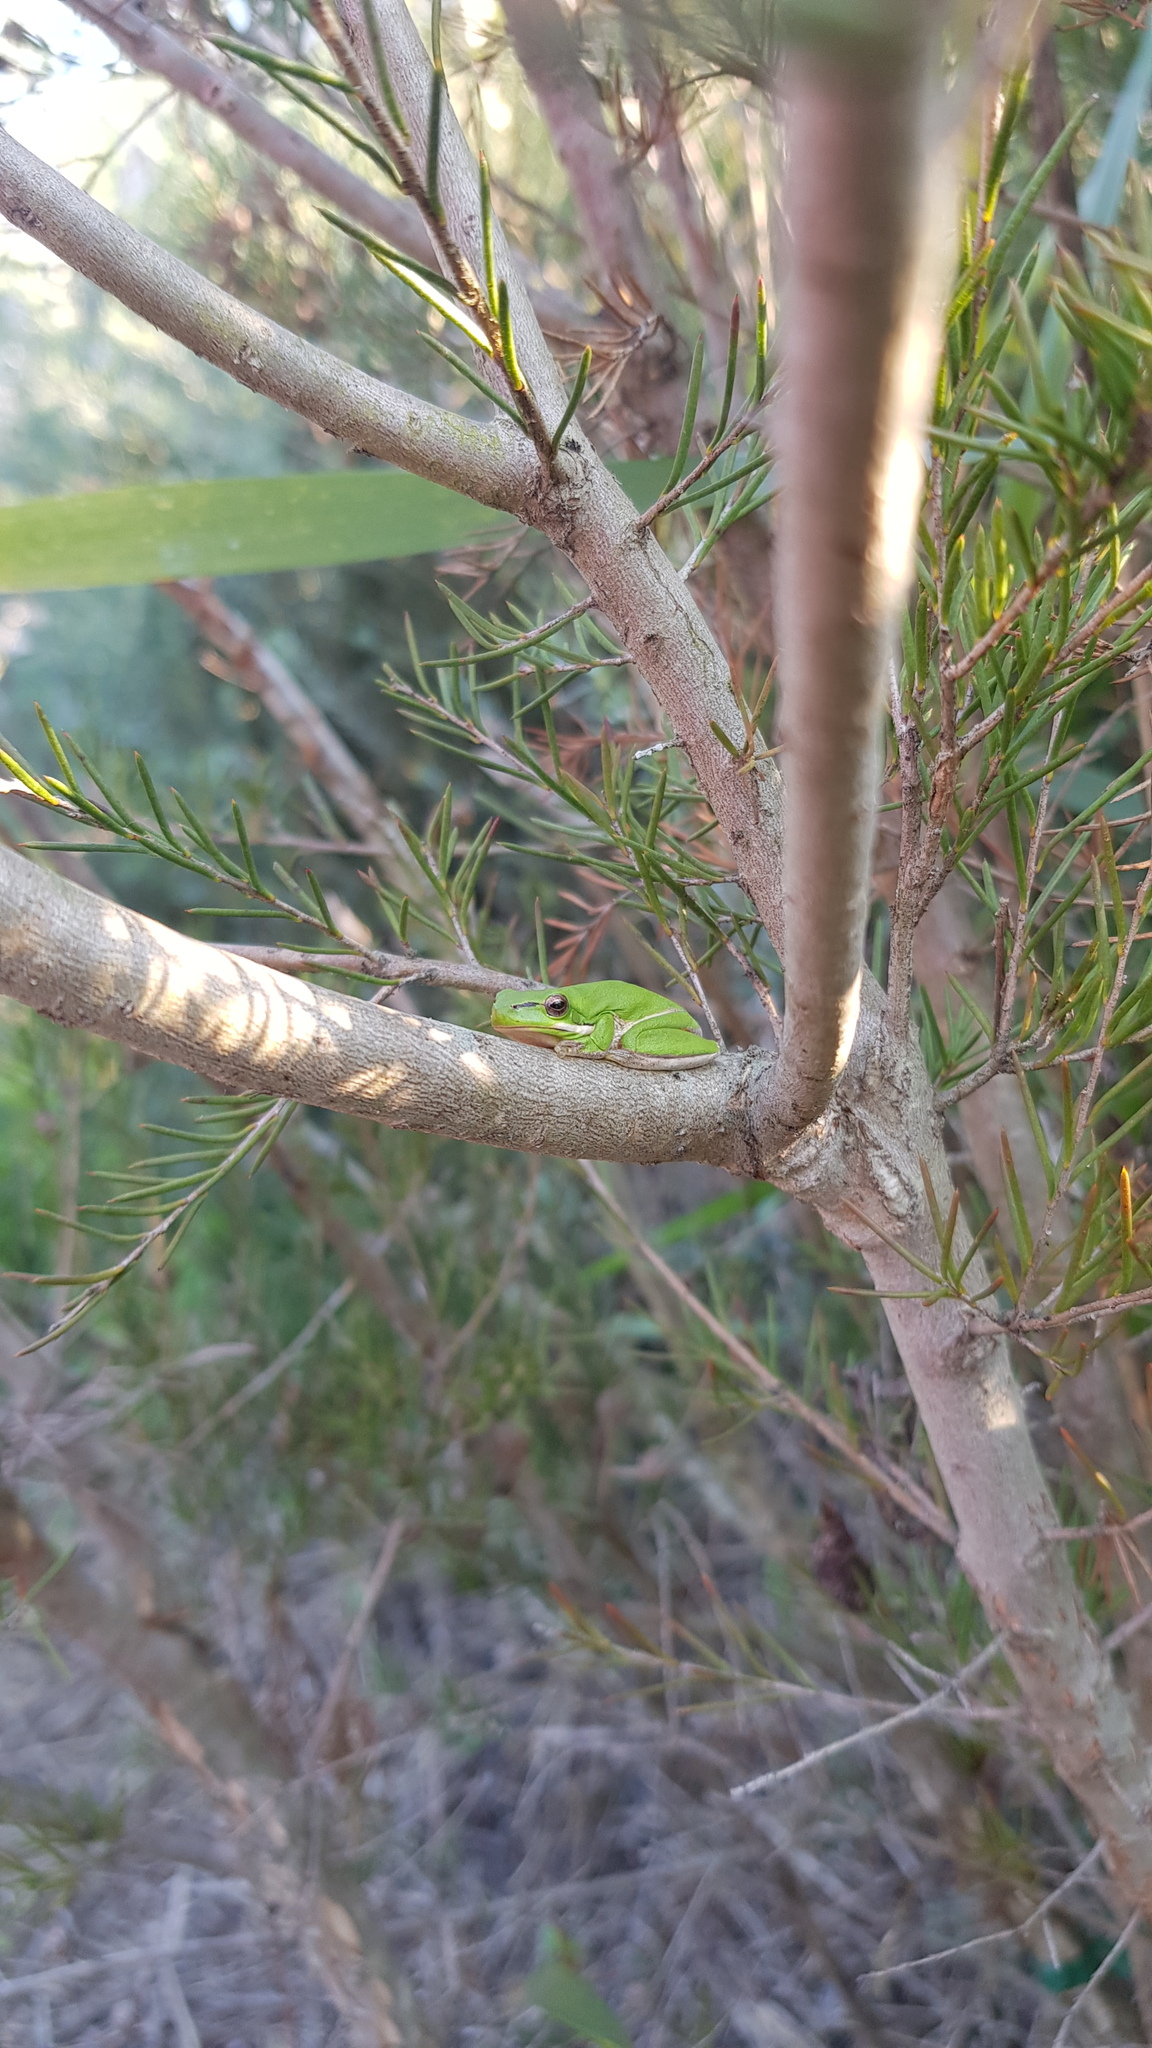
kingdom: Animalia
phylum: Chordata
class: Amphibia
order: Anura
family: Pelodryadidae
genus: Litoria
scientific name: Litoria fallax
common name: Eastern dwarf treefrog
